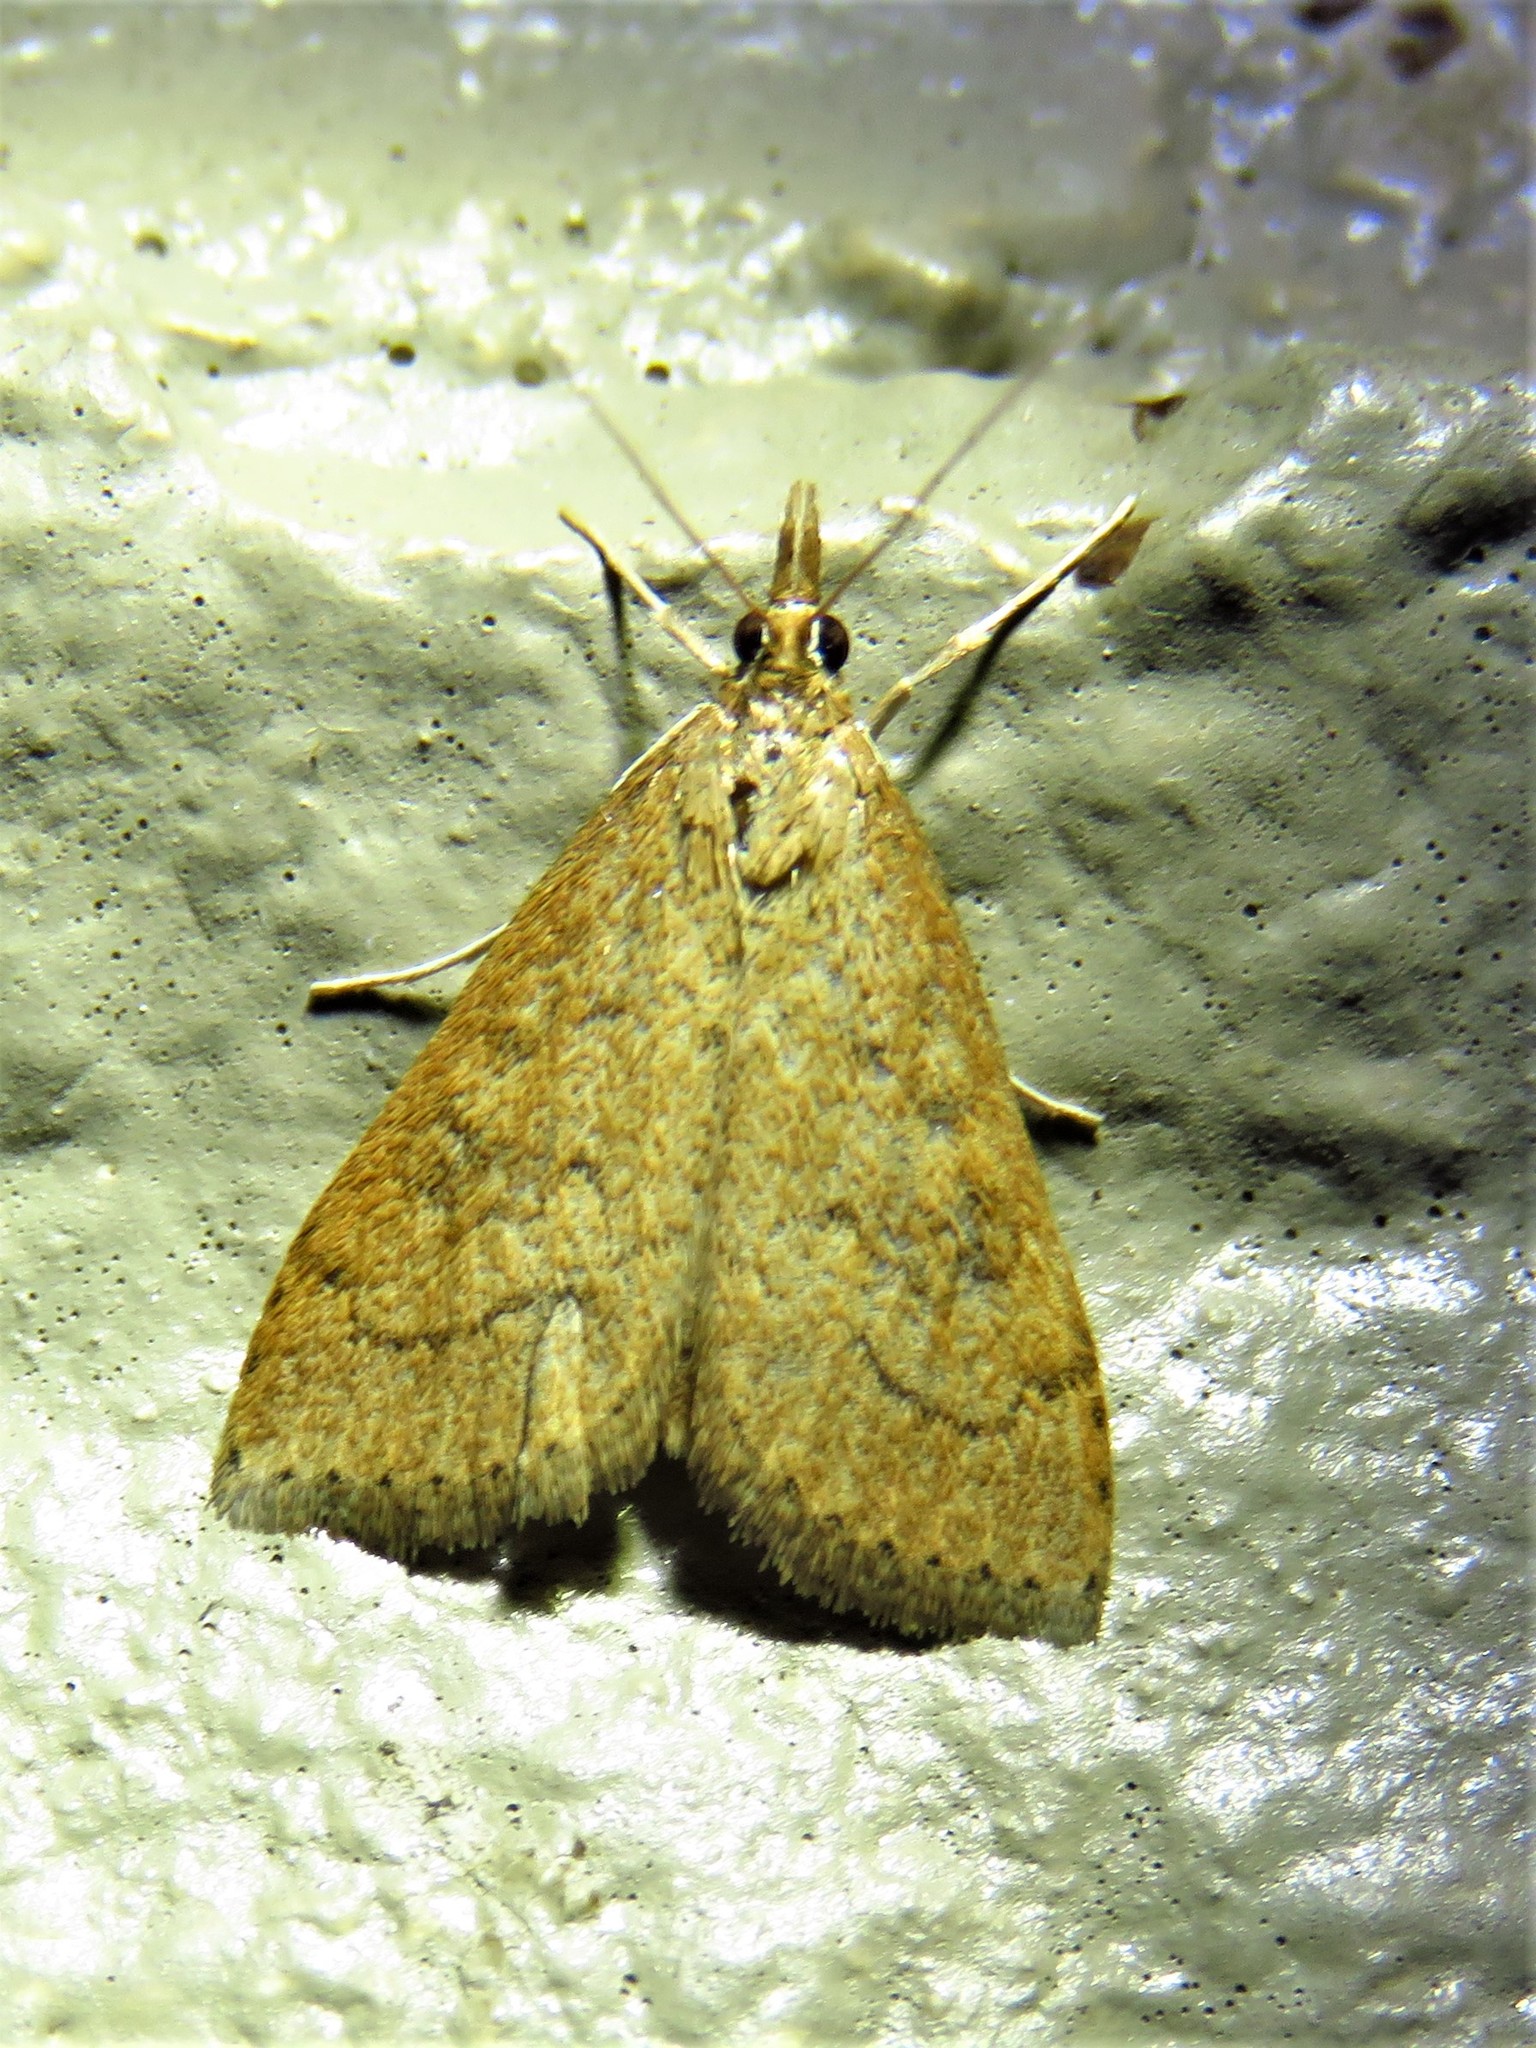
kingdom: Animalia
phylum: Arthropoda
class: Insecta
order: Lepidoptera
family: Crambidae
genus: Udea
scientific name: Udea rubigalis
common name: Celery leaftier moth
